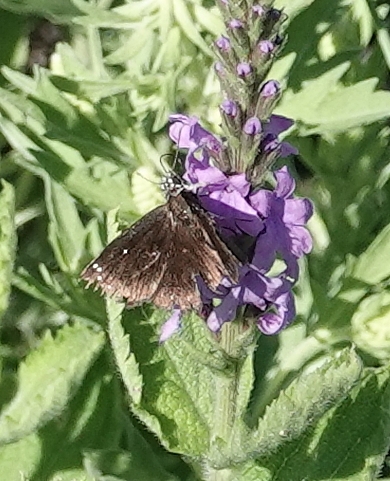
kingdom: Animalia
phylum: Arthropoda
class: Insecta
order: Lepidoptera
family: Hesperiidae
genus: Pholisora
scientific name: Pholisora catullus
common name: Common sootywing
